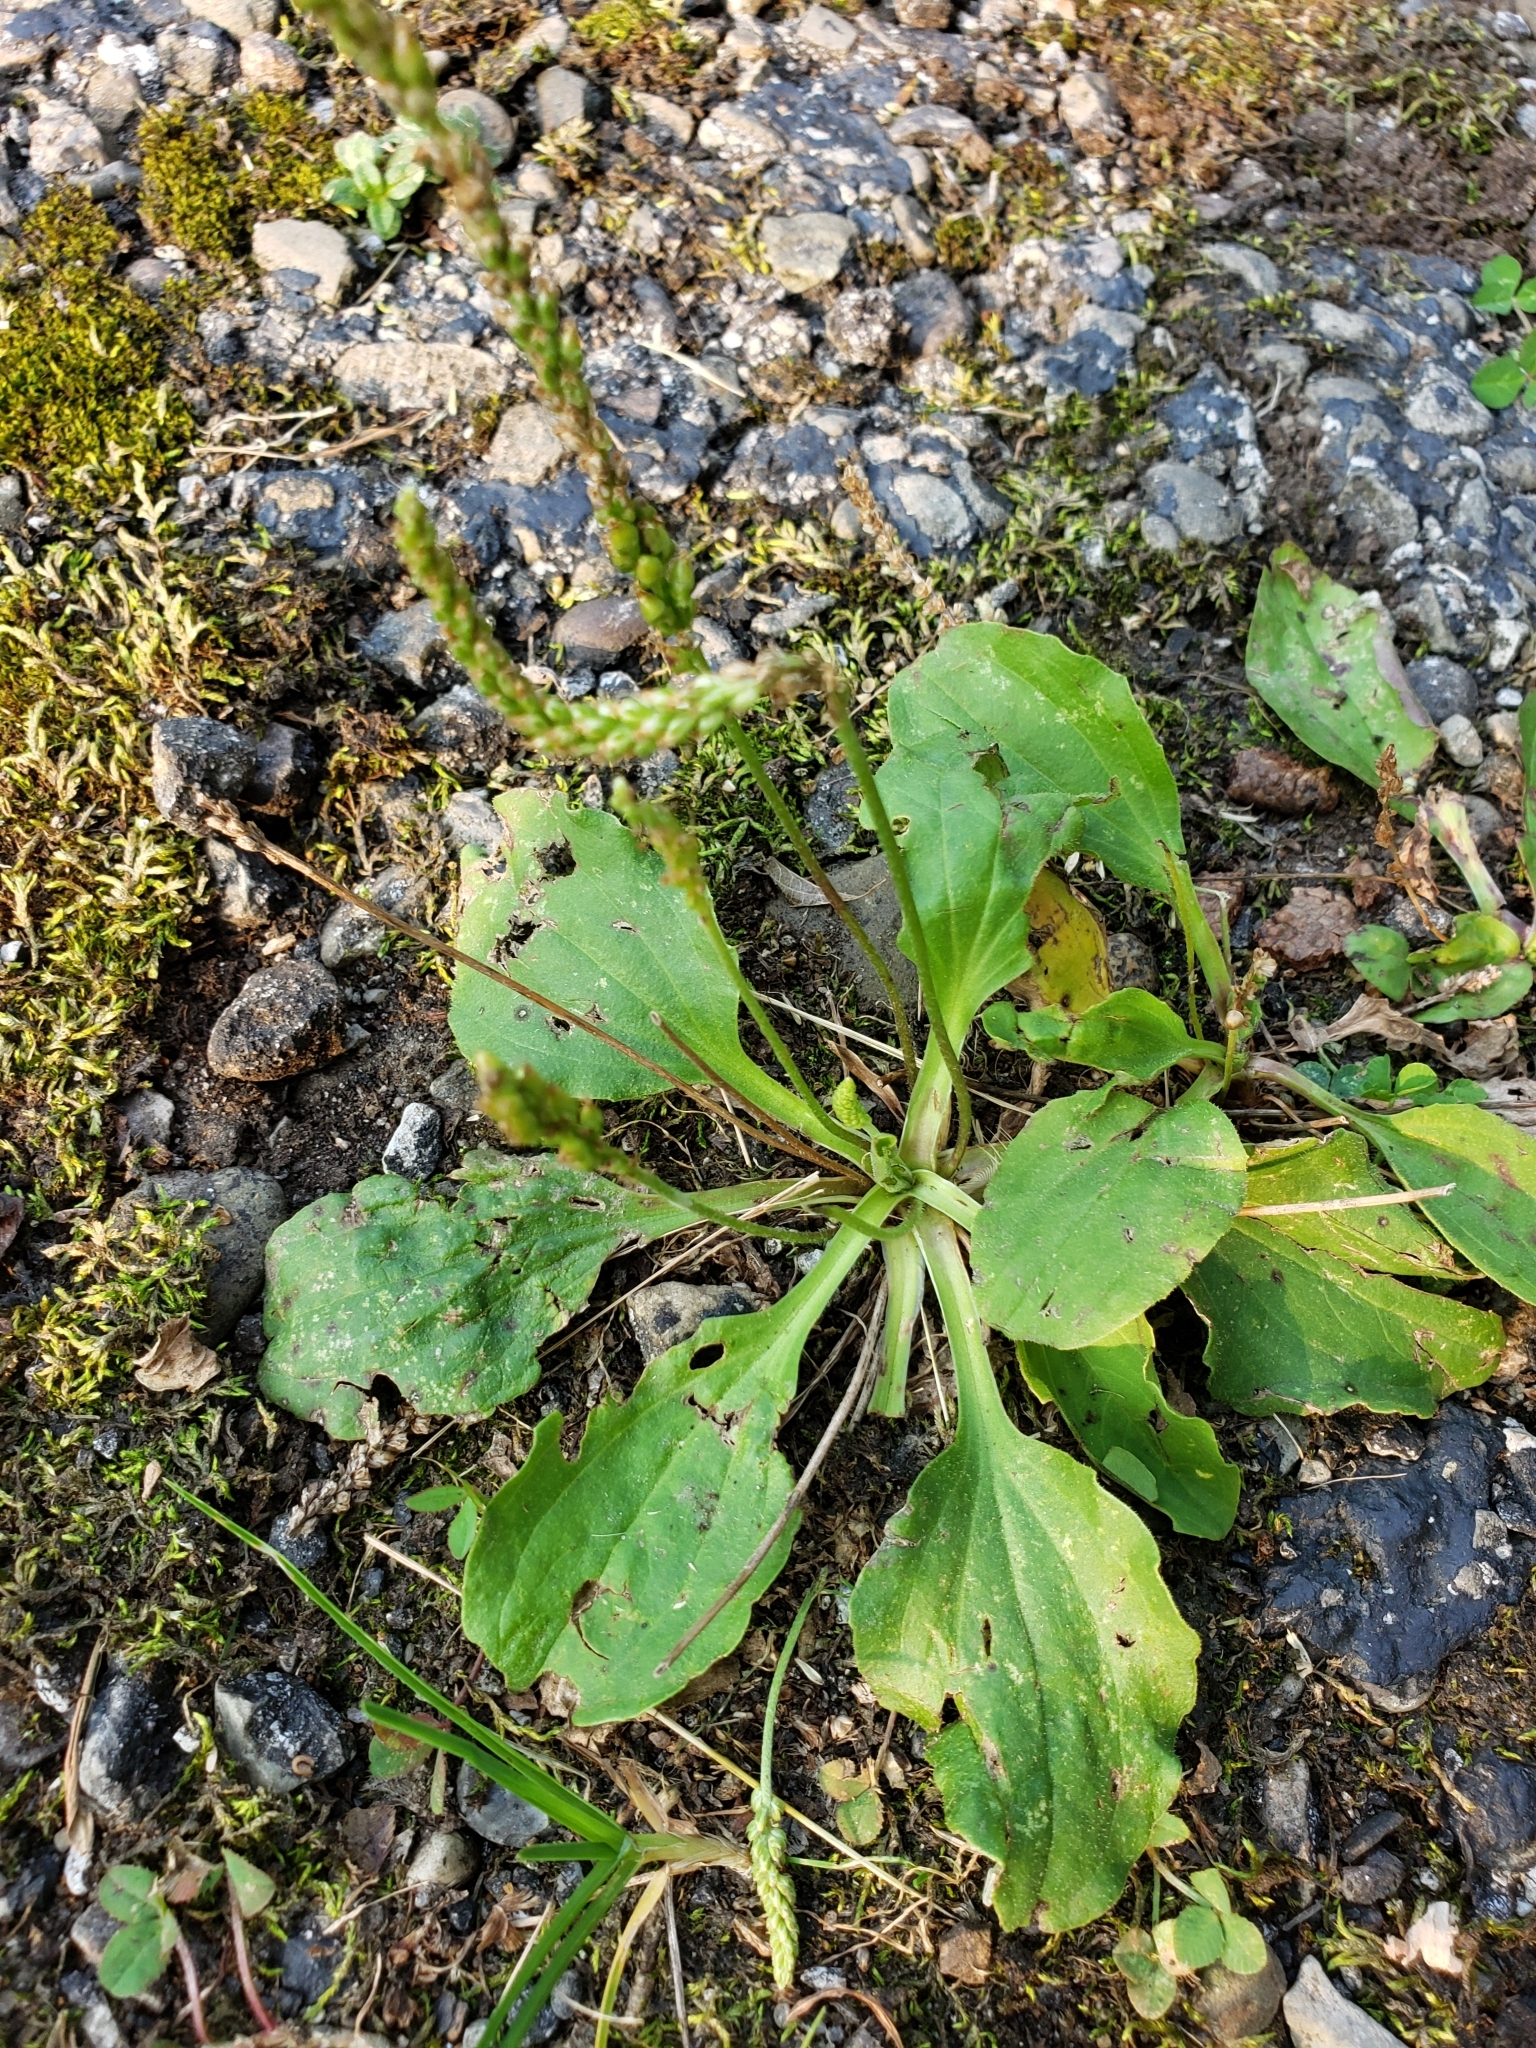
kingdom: Plantae
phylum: Tracheophyta
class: Magnoliopsida
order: Lamiales
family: Plantaginaceae
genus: Plantago
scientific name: Plantago major
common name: Common plantain
